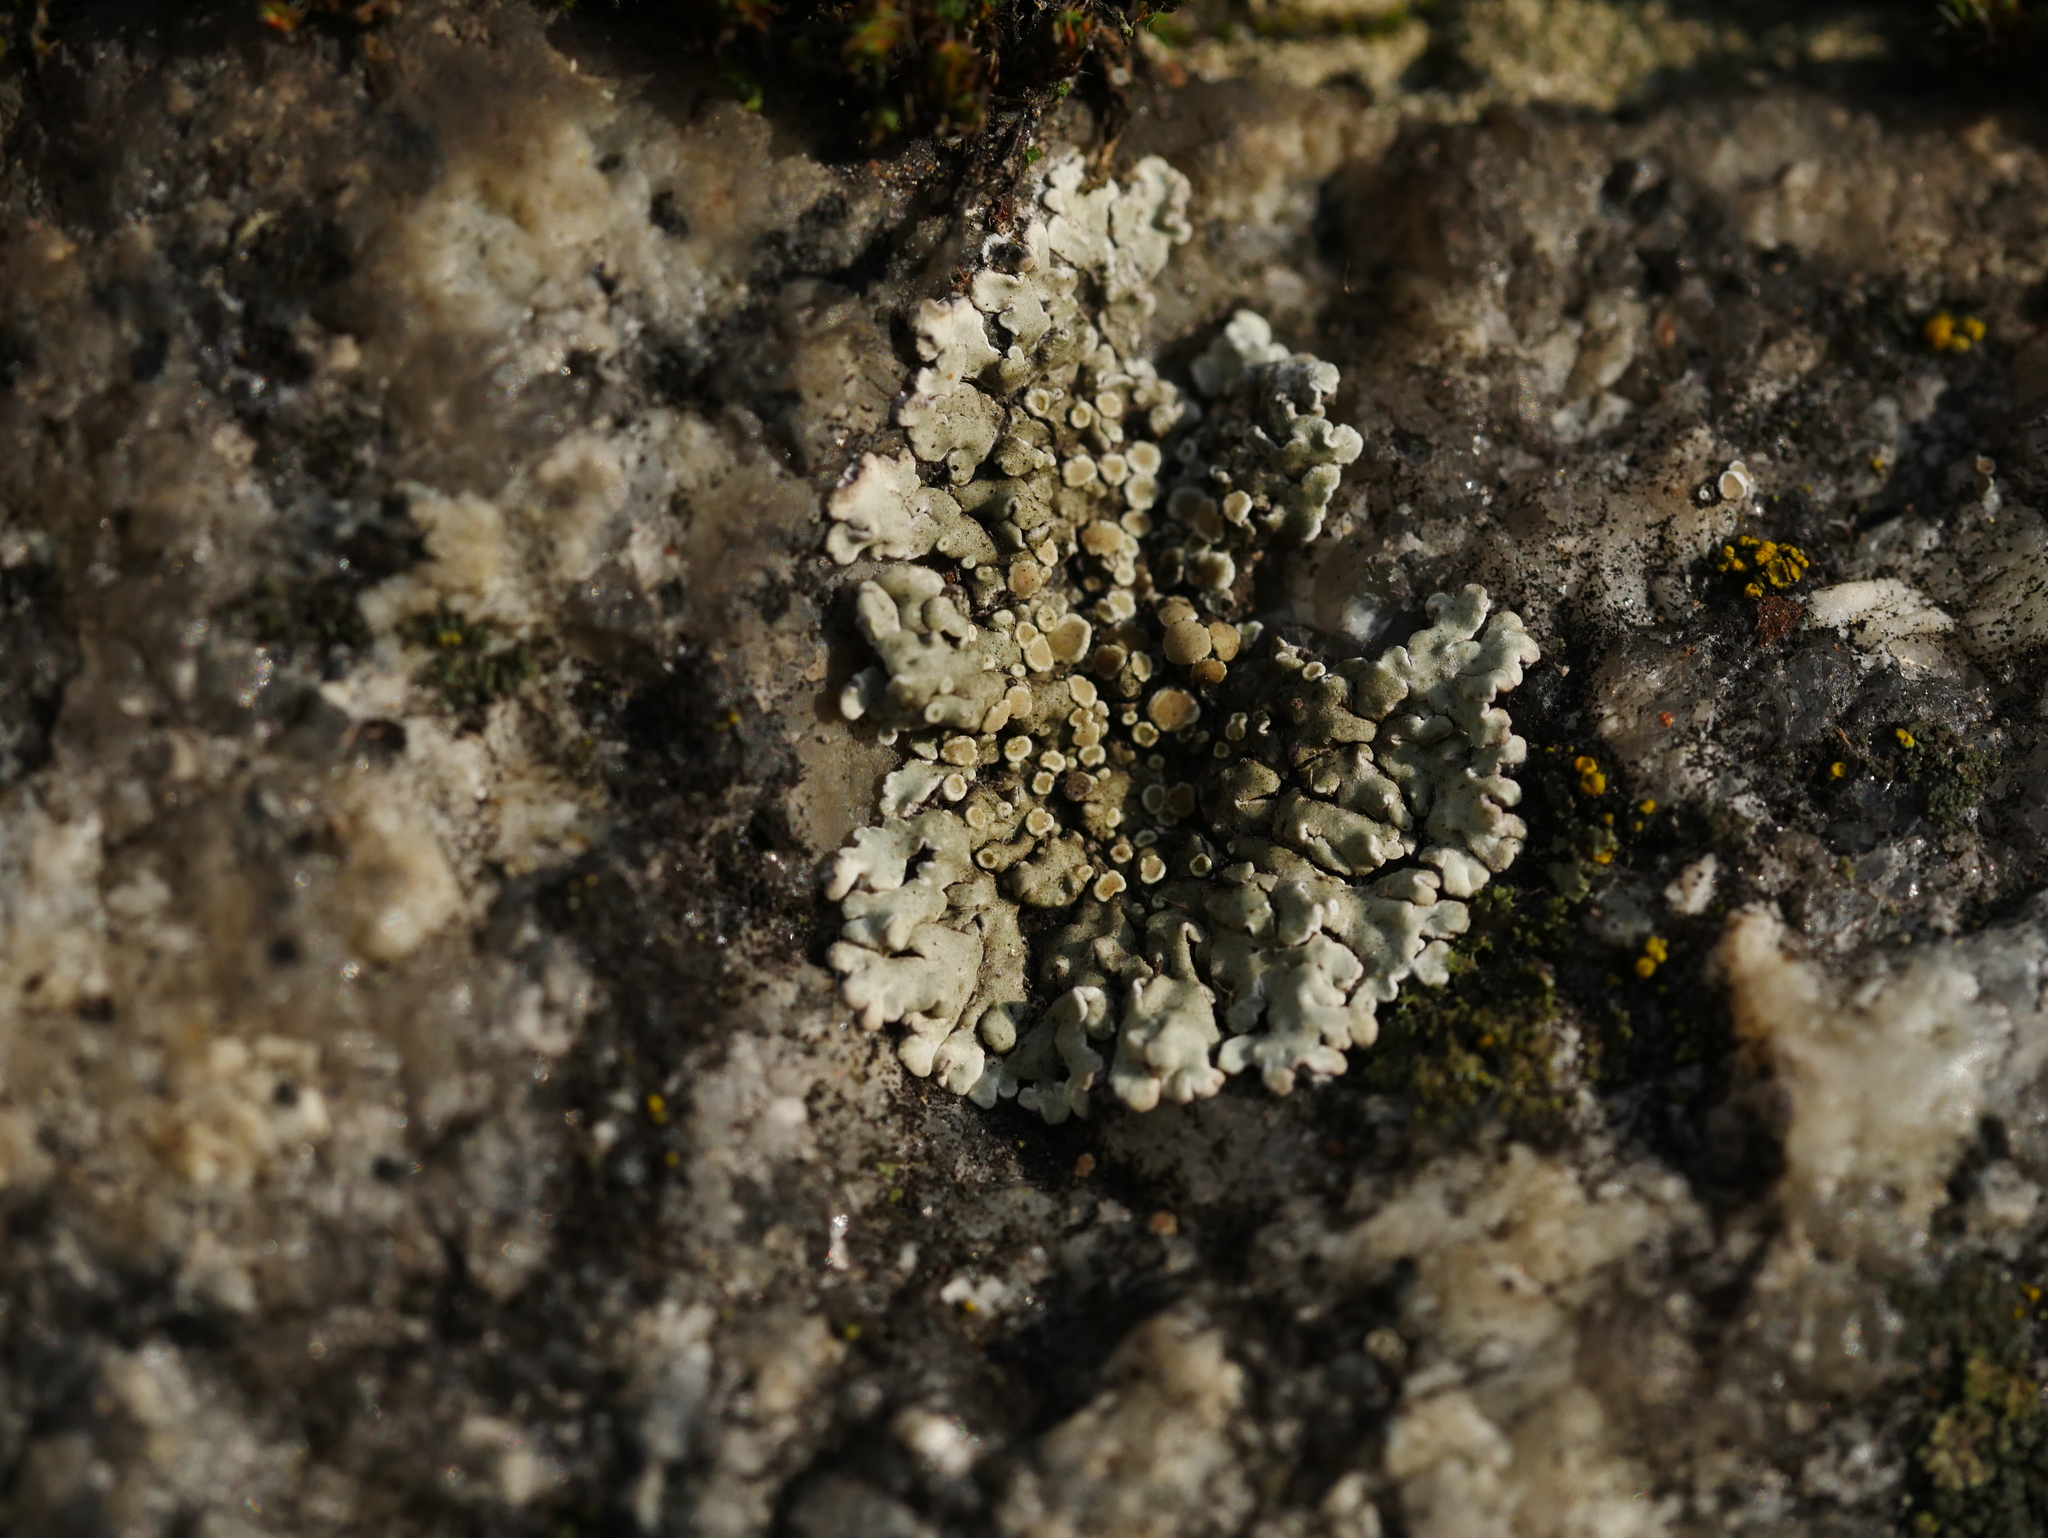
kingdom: Fungi
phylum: Ascomycota
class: Lecanoromycetes
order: Lecanorales
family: Lecanoraceae
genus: Protoparmeliopsis
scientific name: Protoparmeliopsis muralis
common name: Stonewall rim lichen
